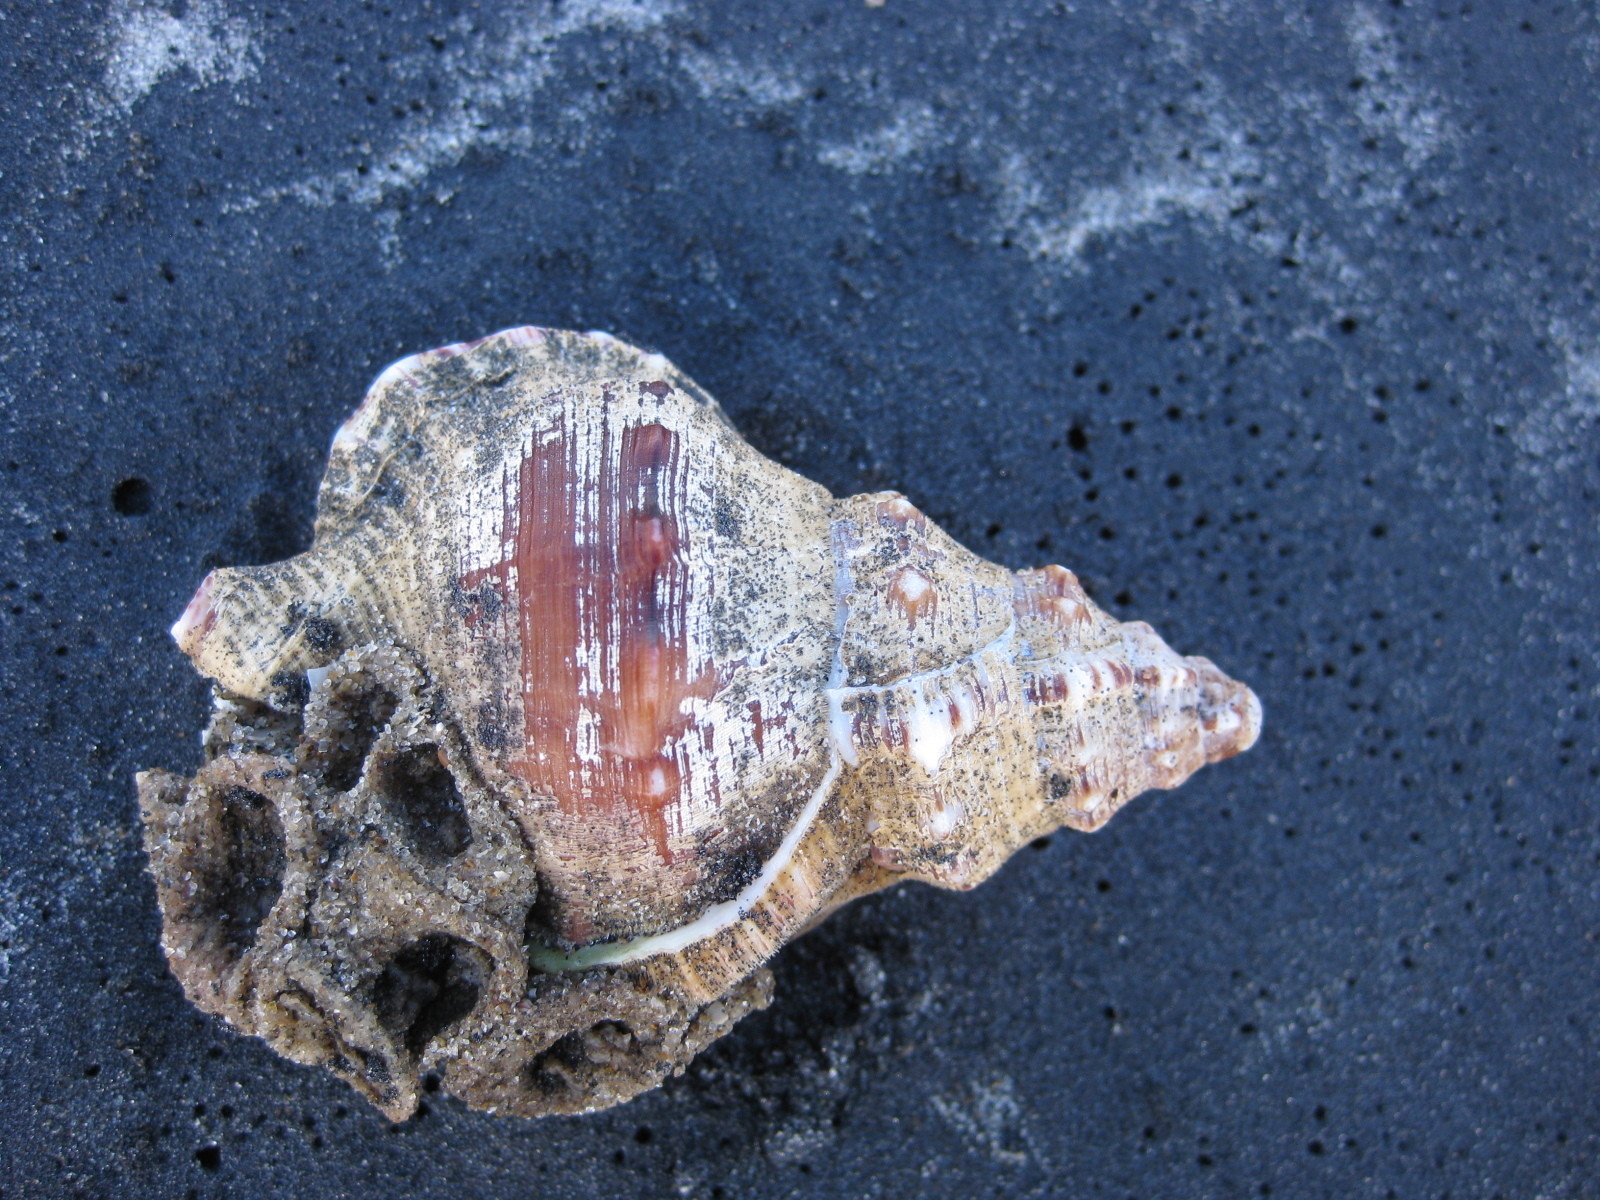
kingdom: Animalia
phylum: Mollusca
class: Gastropoda
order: Littorinimorpha
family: Ranellidae
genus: Ranella
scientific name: Ranella australasia
